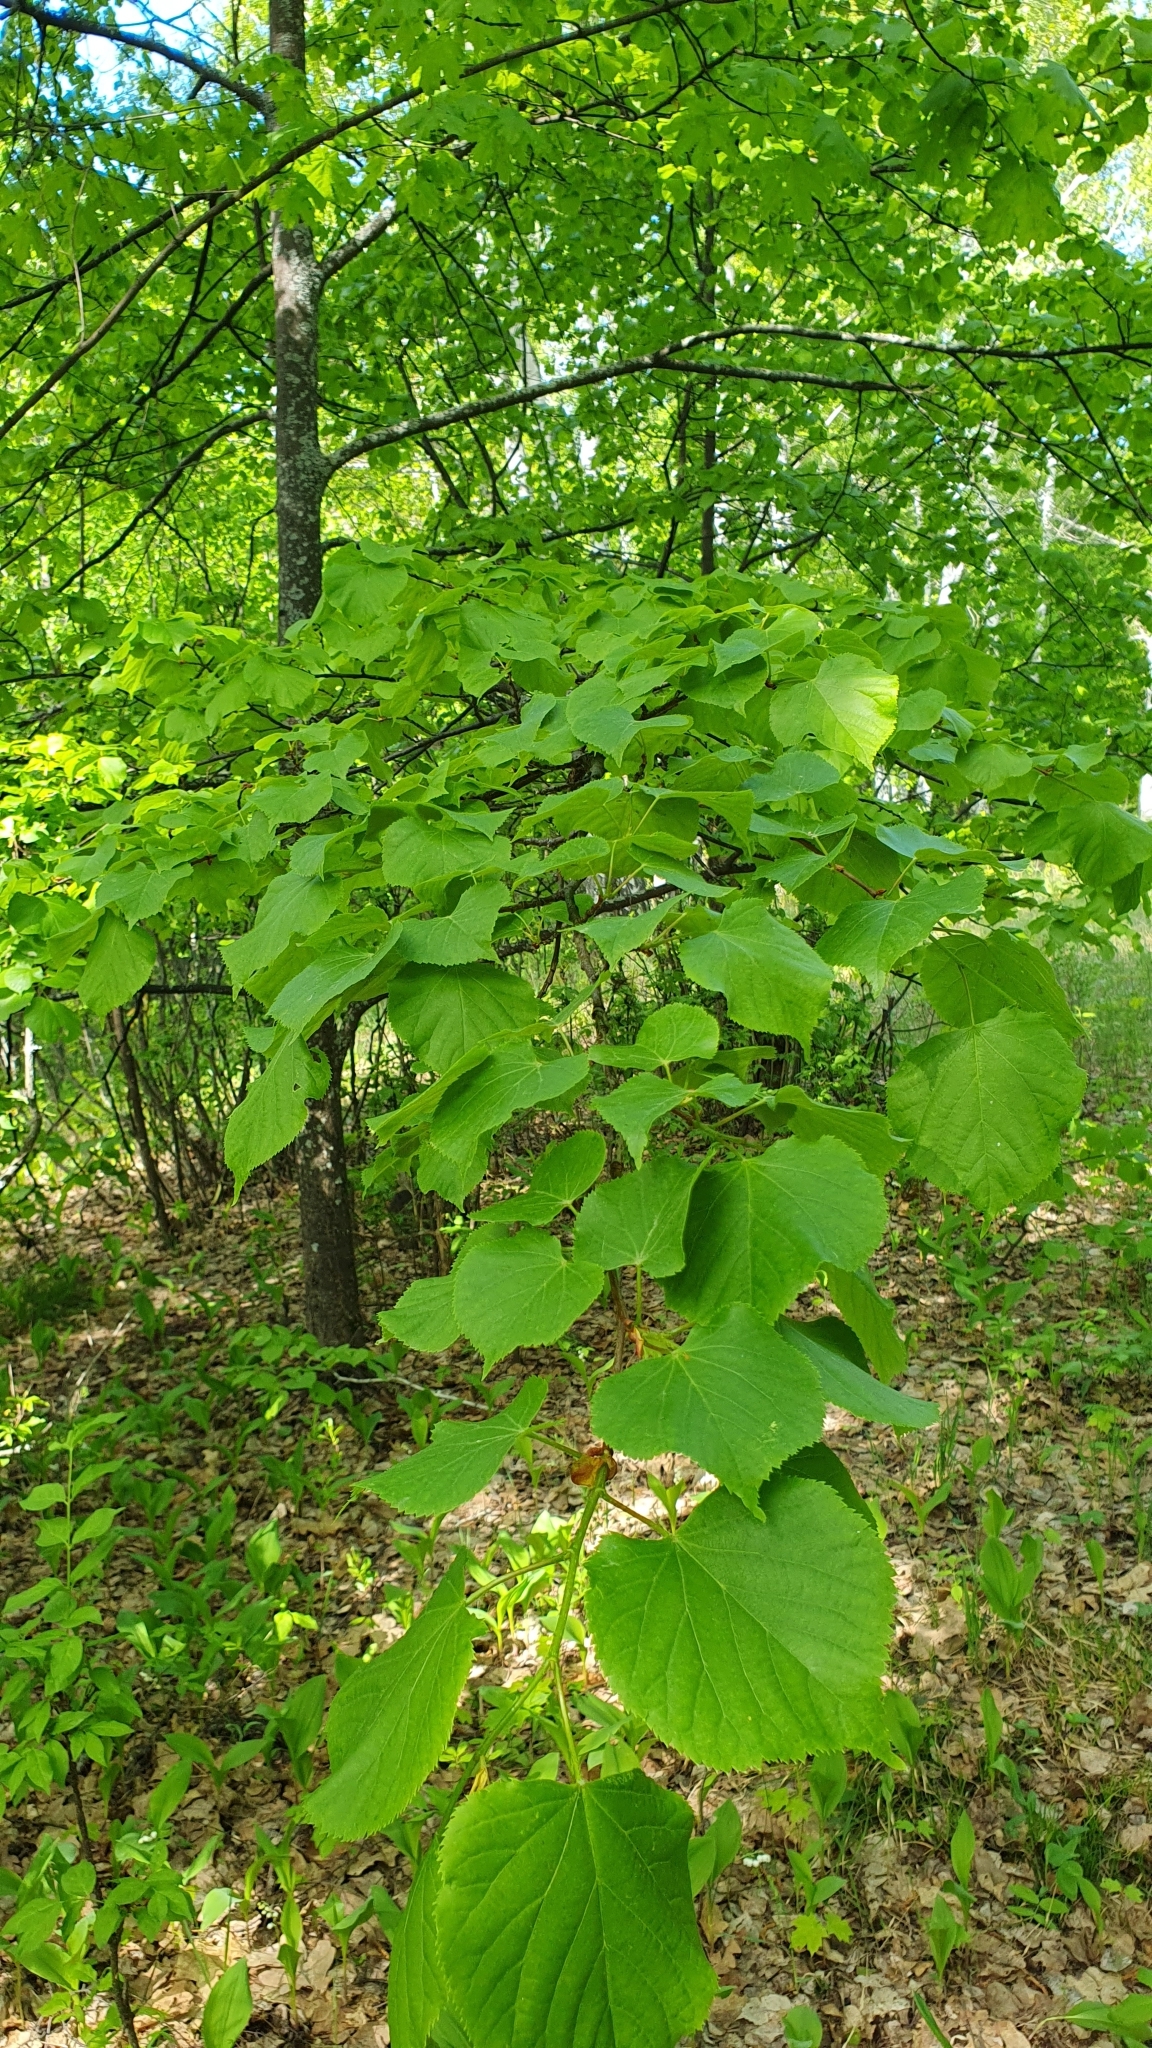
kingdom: Plantae
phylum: Tracheophyta
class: Magnoliopsida
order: Malvales
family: Malvaceae
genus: Tilia
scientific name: Tilia cordata
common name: Small-leaved lime
